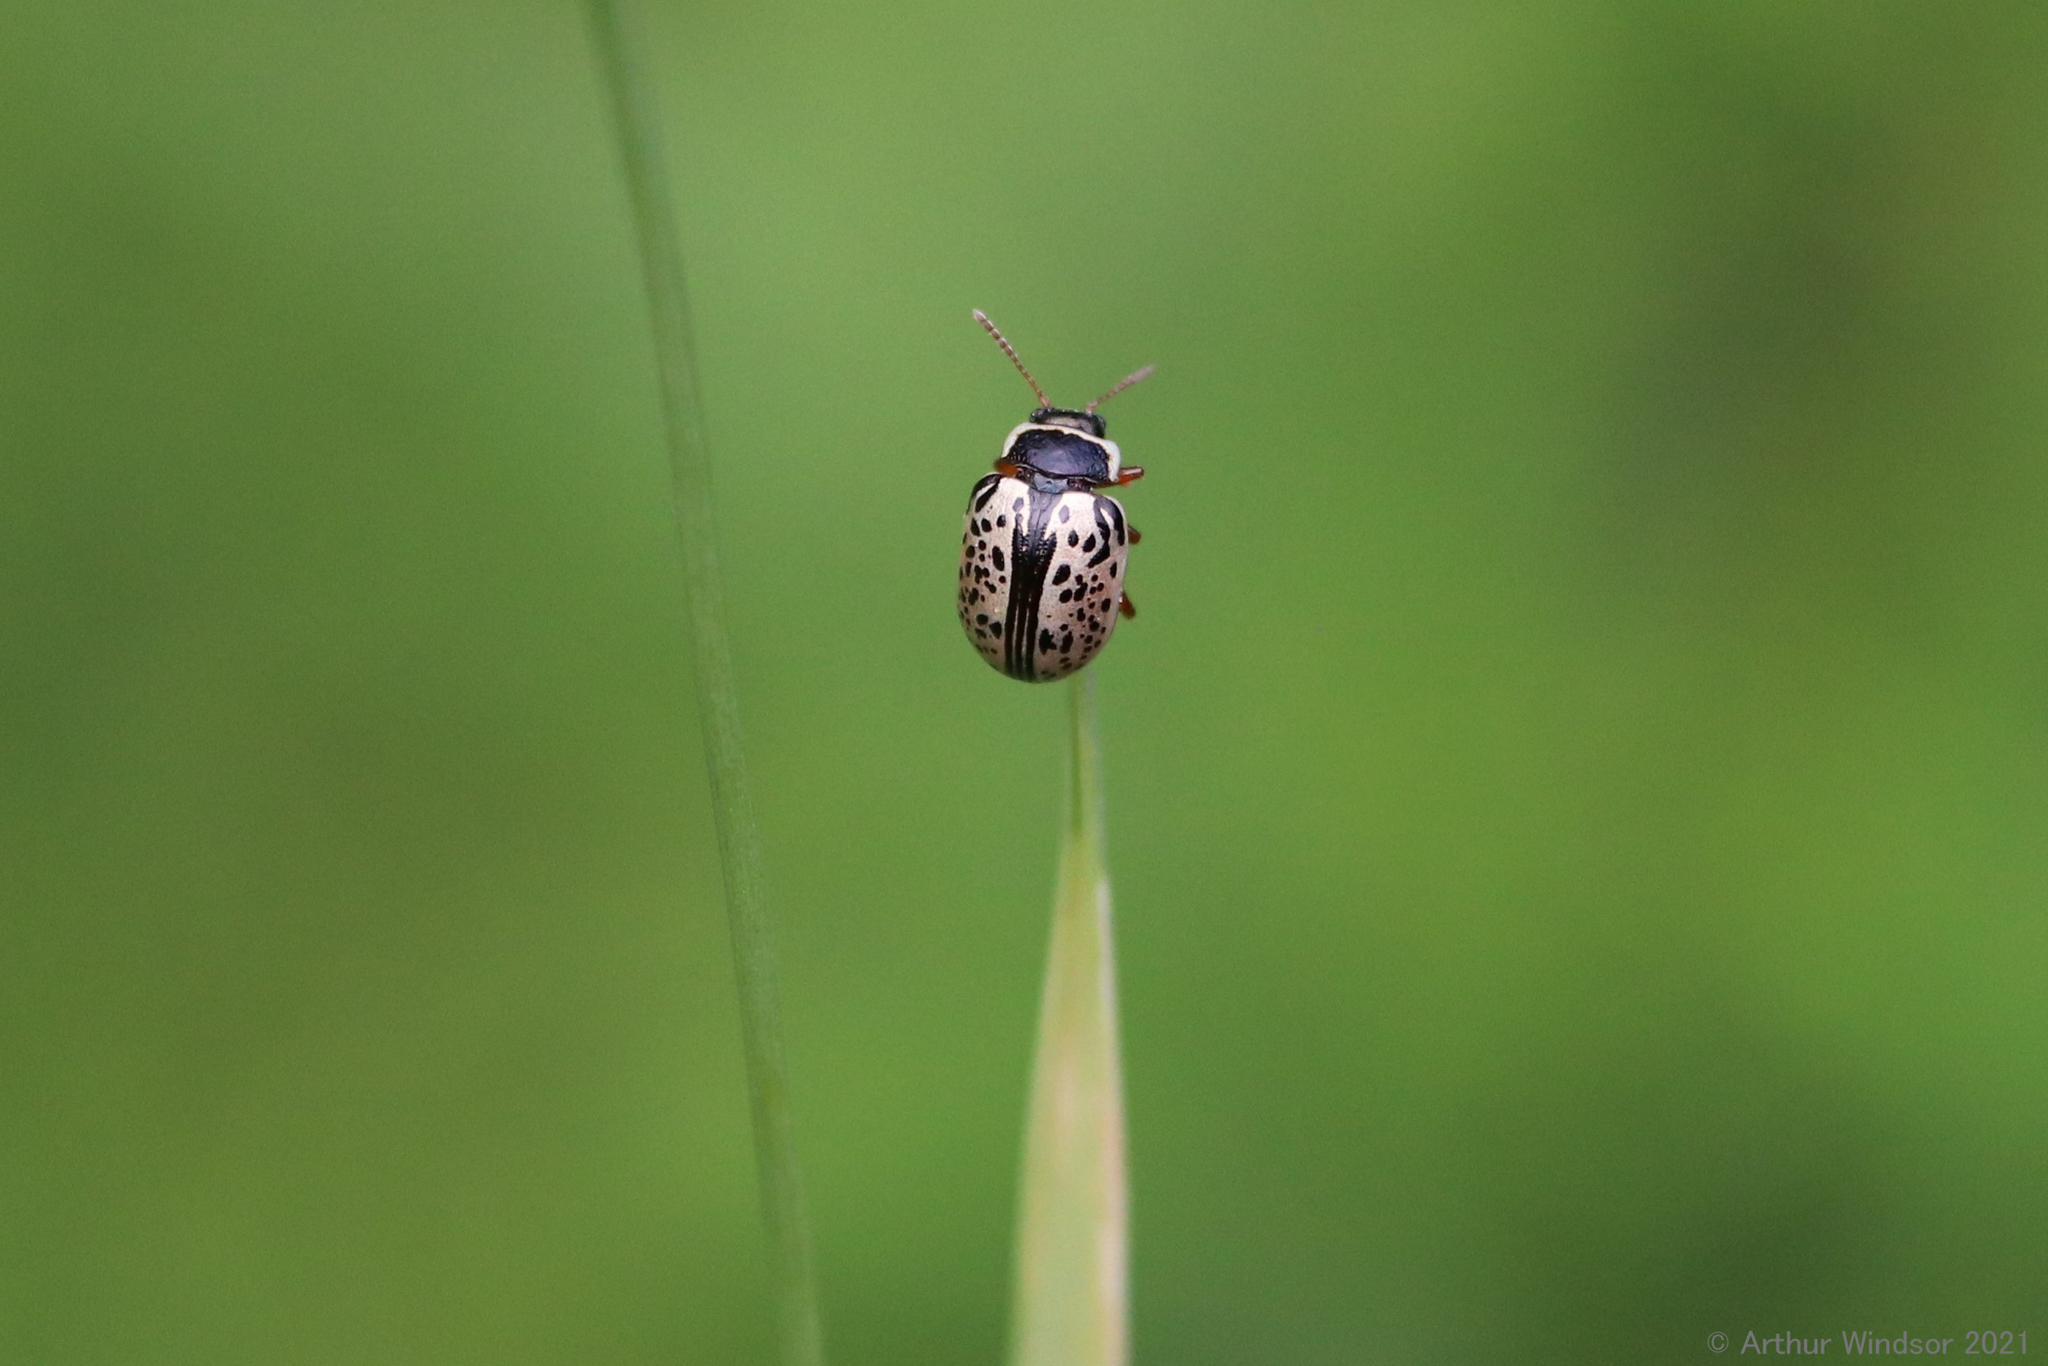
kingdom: Animalia
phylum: Arthropoda
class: Insecta
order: Coleoptera
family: Chrysomelidae
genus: Calligrapha
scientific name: Calligrapha multipunctata
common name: Common willow calligrapher beetle
